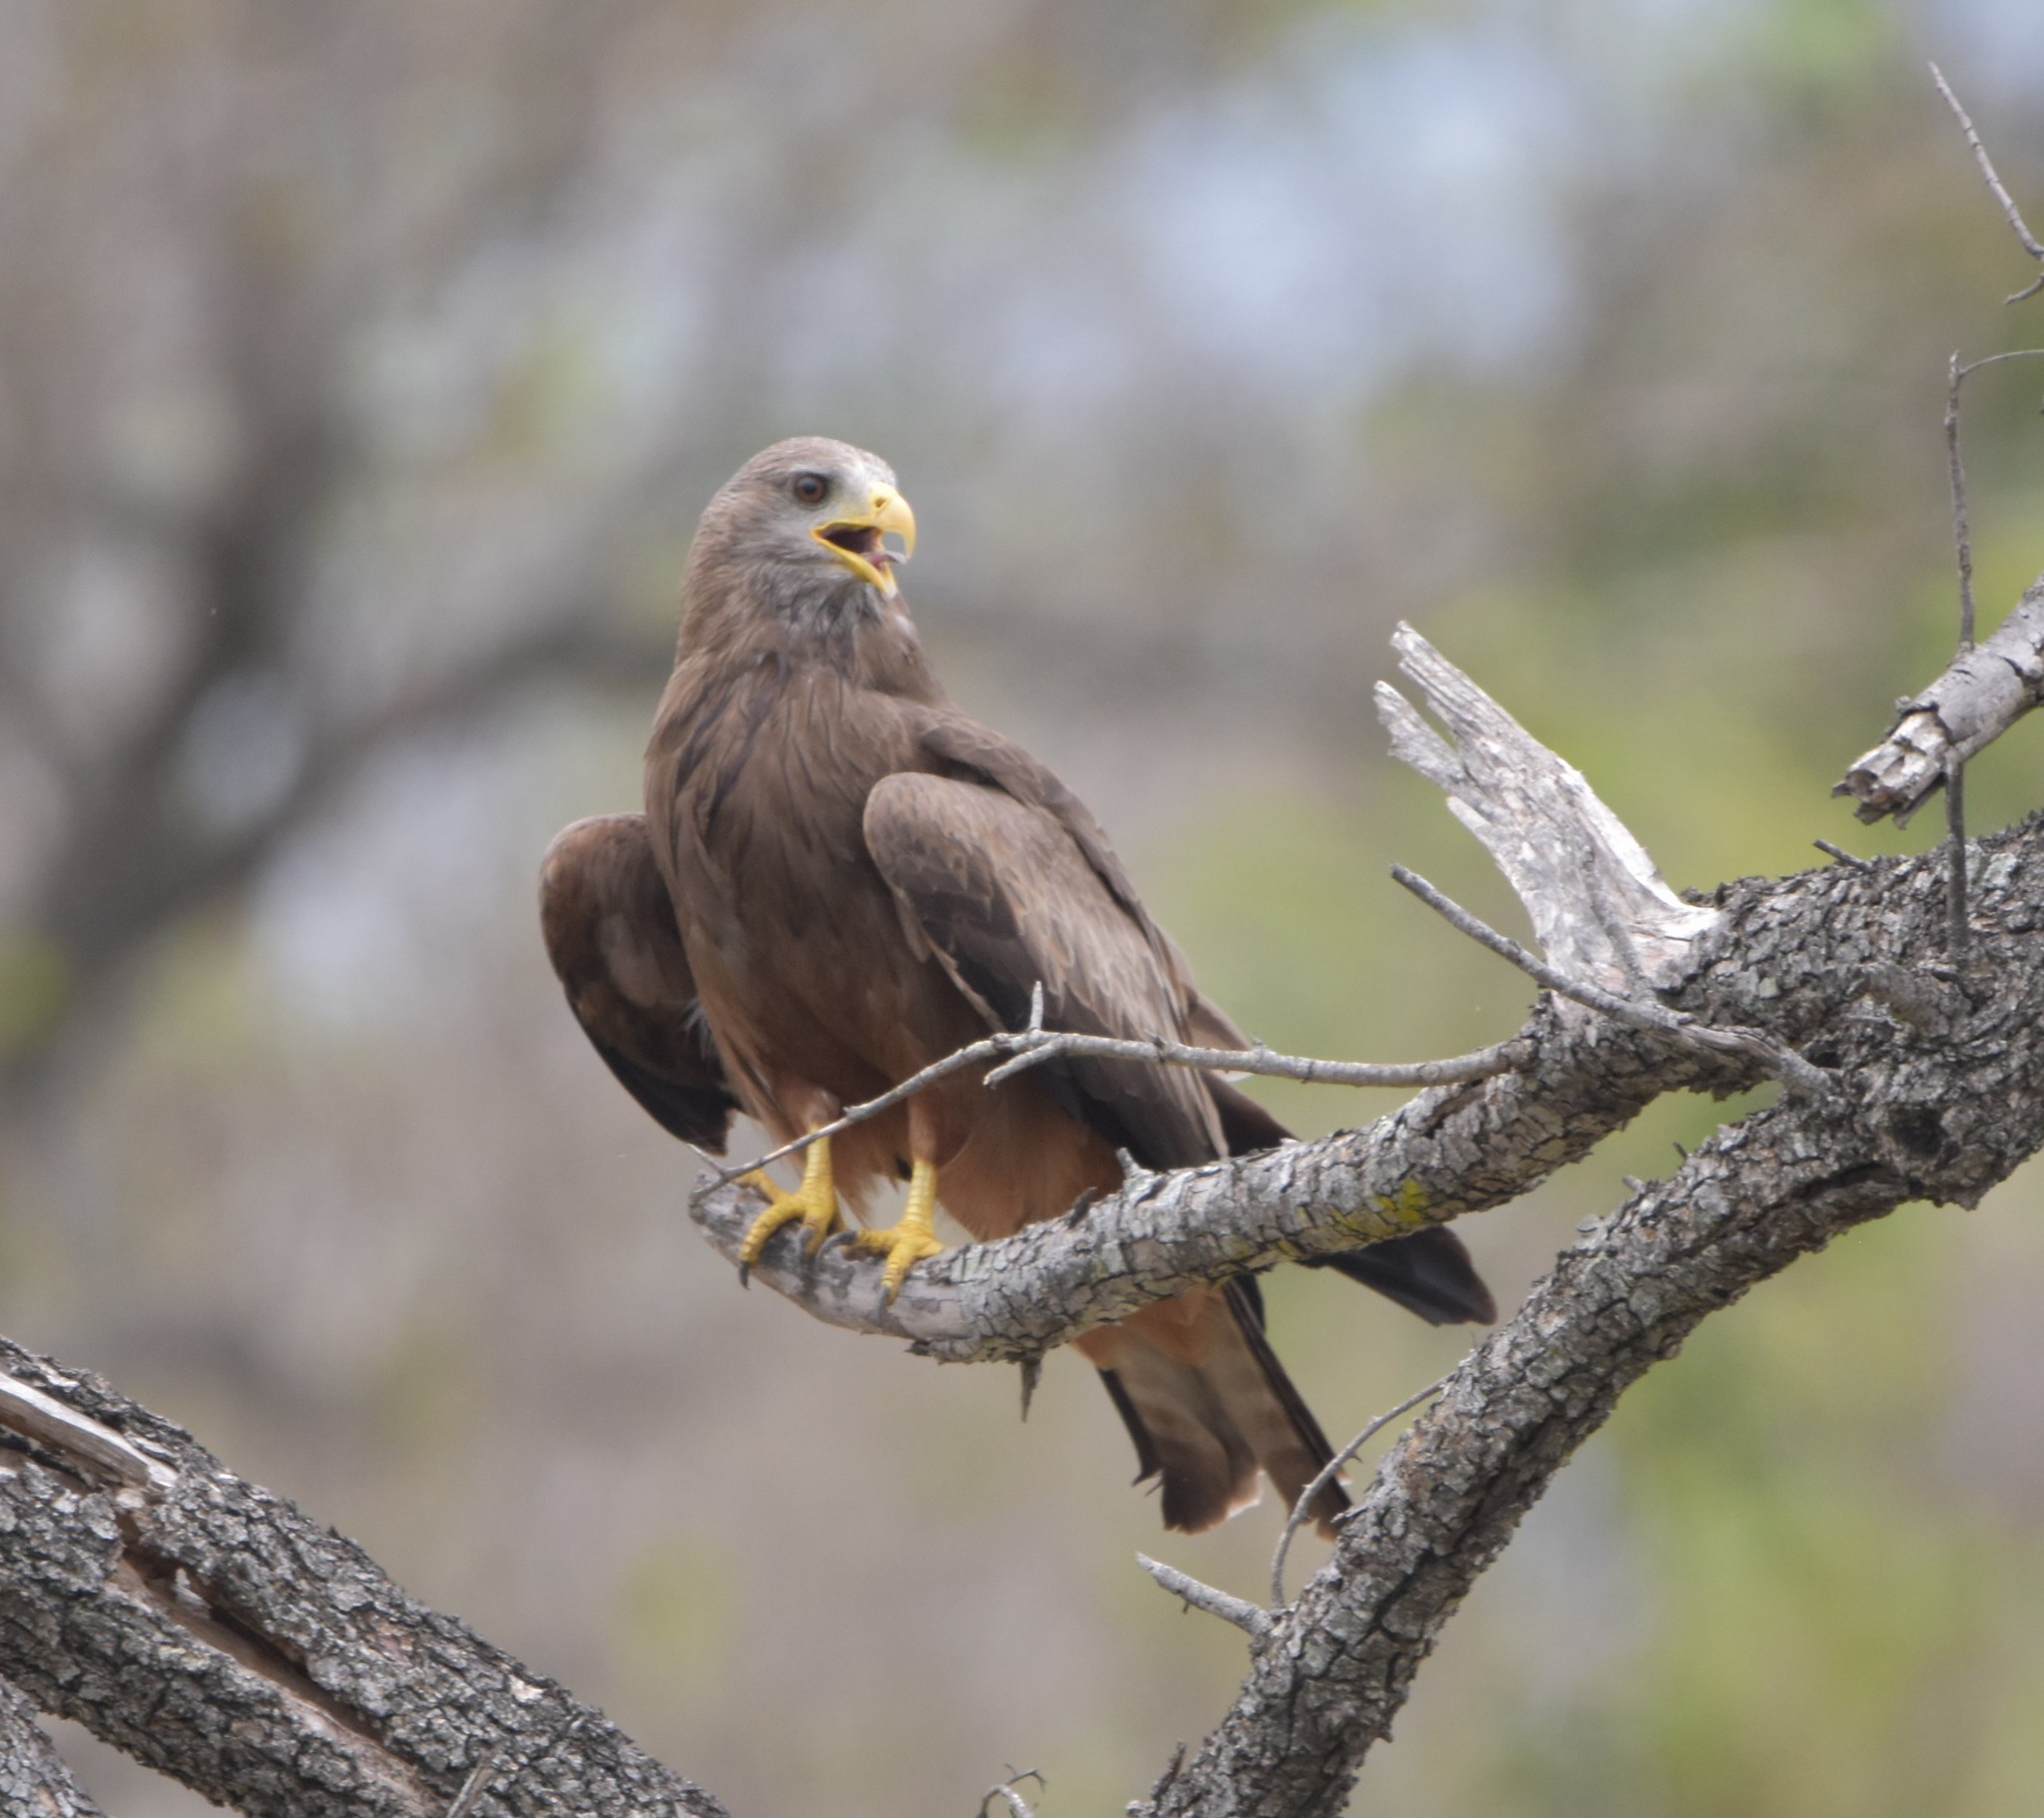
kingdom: Animalia
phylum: Chordata
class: Aves
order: Accipitriformes
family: Accipitridae
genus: Milvus
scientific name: Milvus migrans
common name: Black kite
